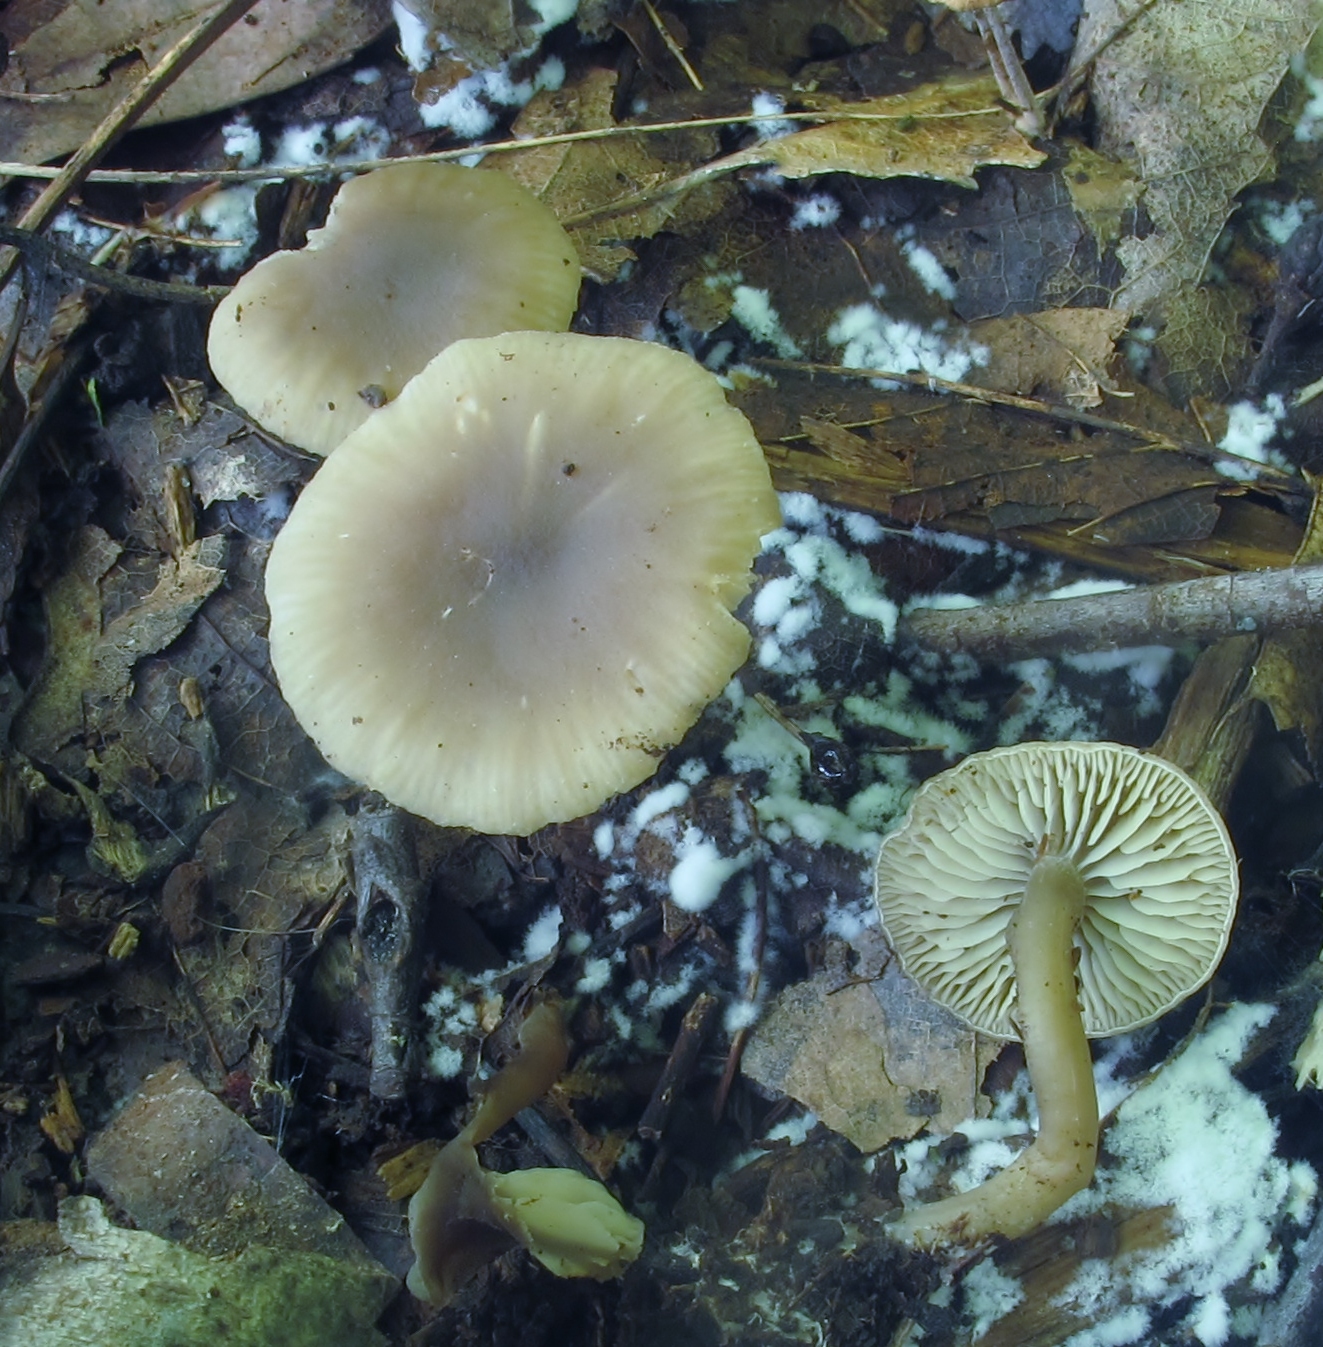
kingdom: Fungi
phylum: Basidiomycota
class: Agaricomycetes
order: Agaricales
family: Crepidotaceae
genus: Simocybe
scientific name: Simocybe centunculus
